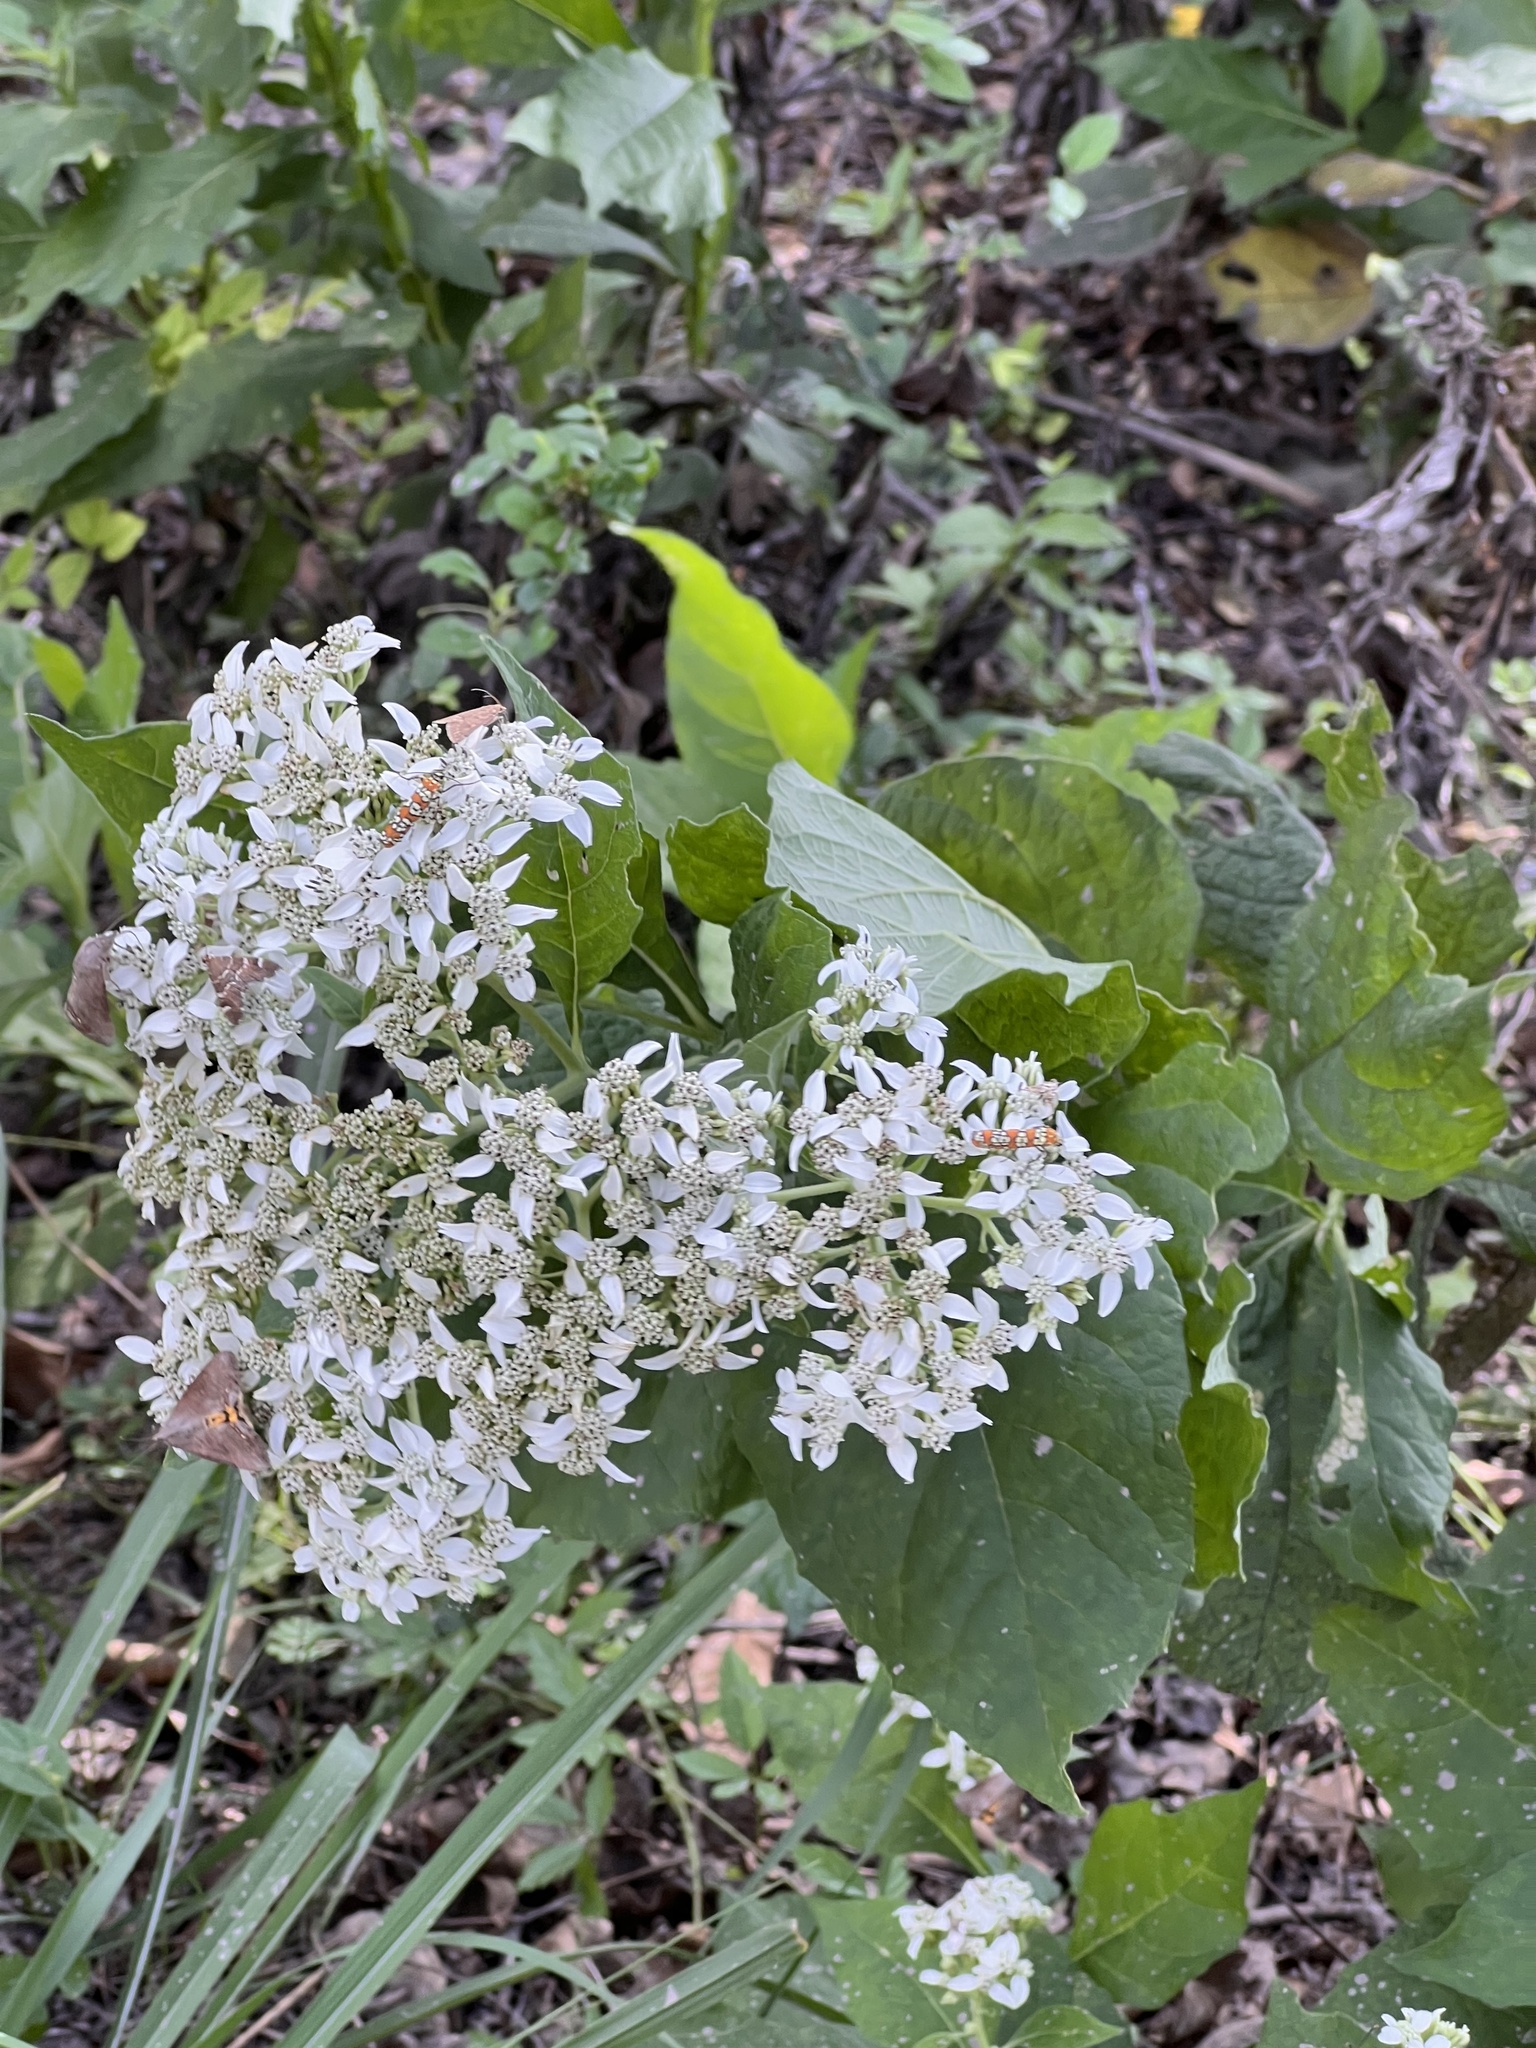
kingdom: Plantae
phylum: Tracheophyta
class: Magnoliopsida
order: Asterales
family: Asteraceae
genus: Verbesina
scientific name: Verbesina virginica
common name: Frostweed
